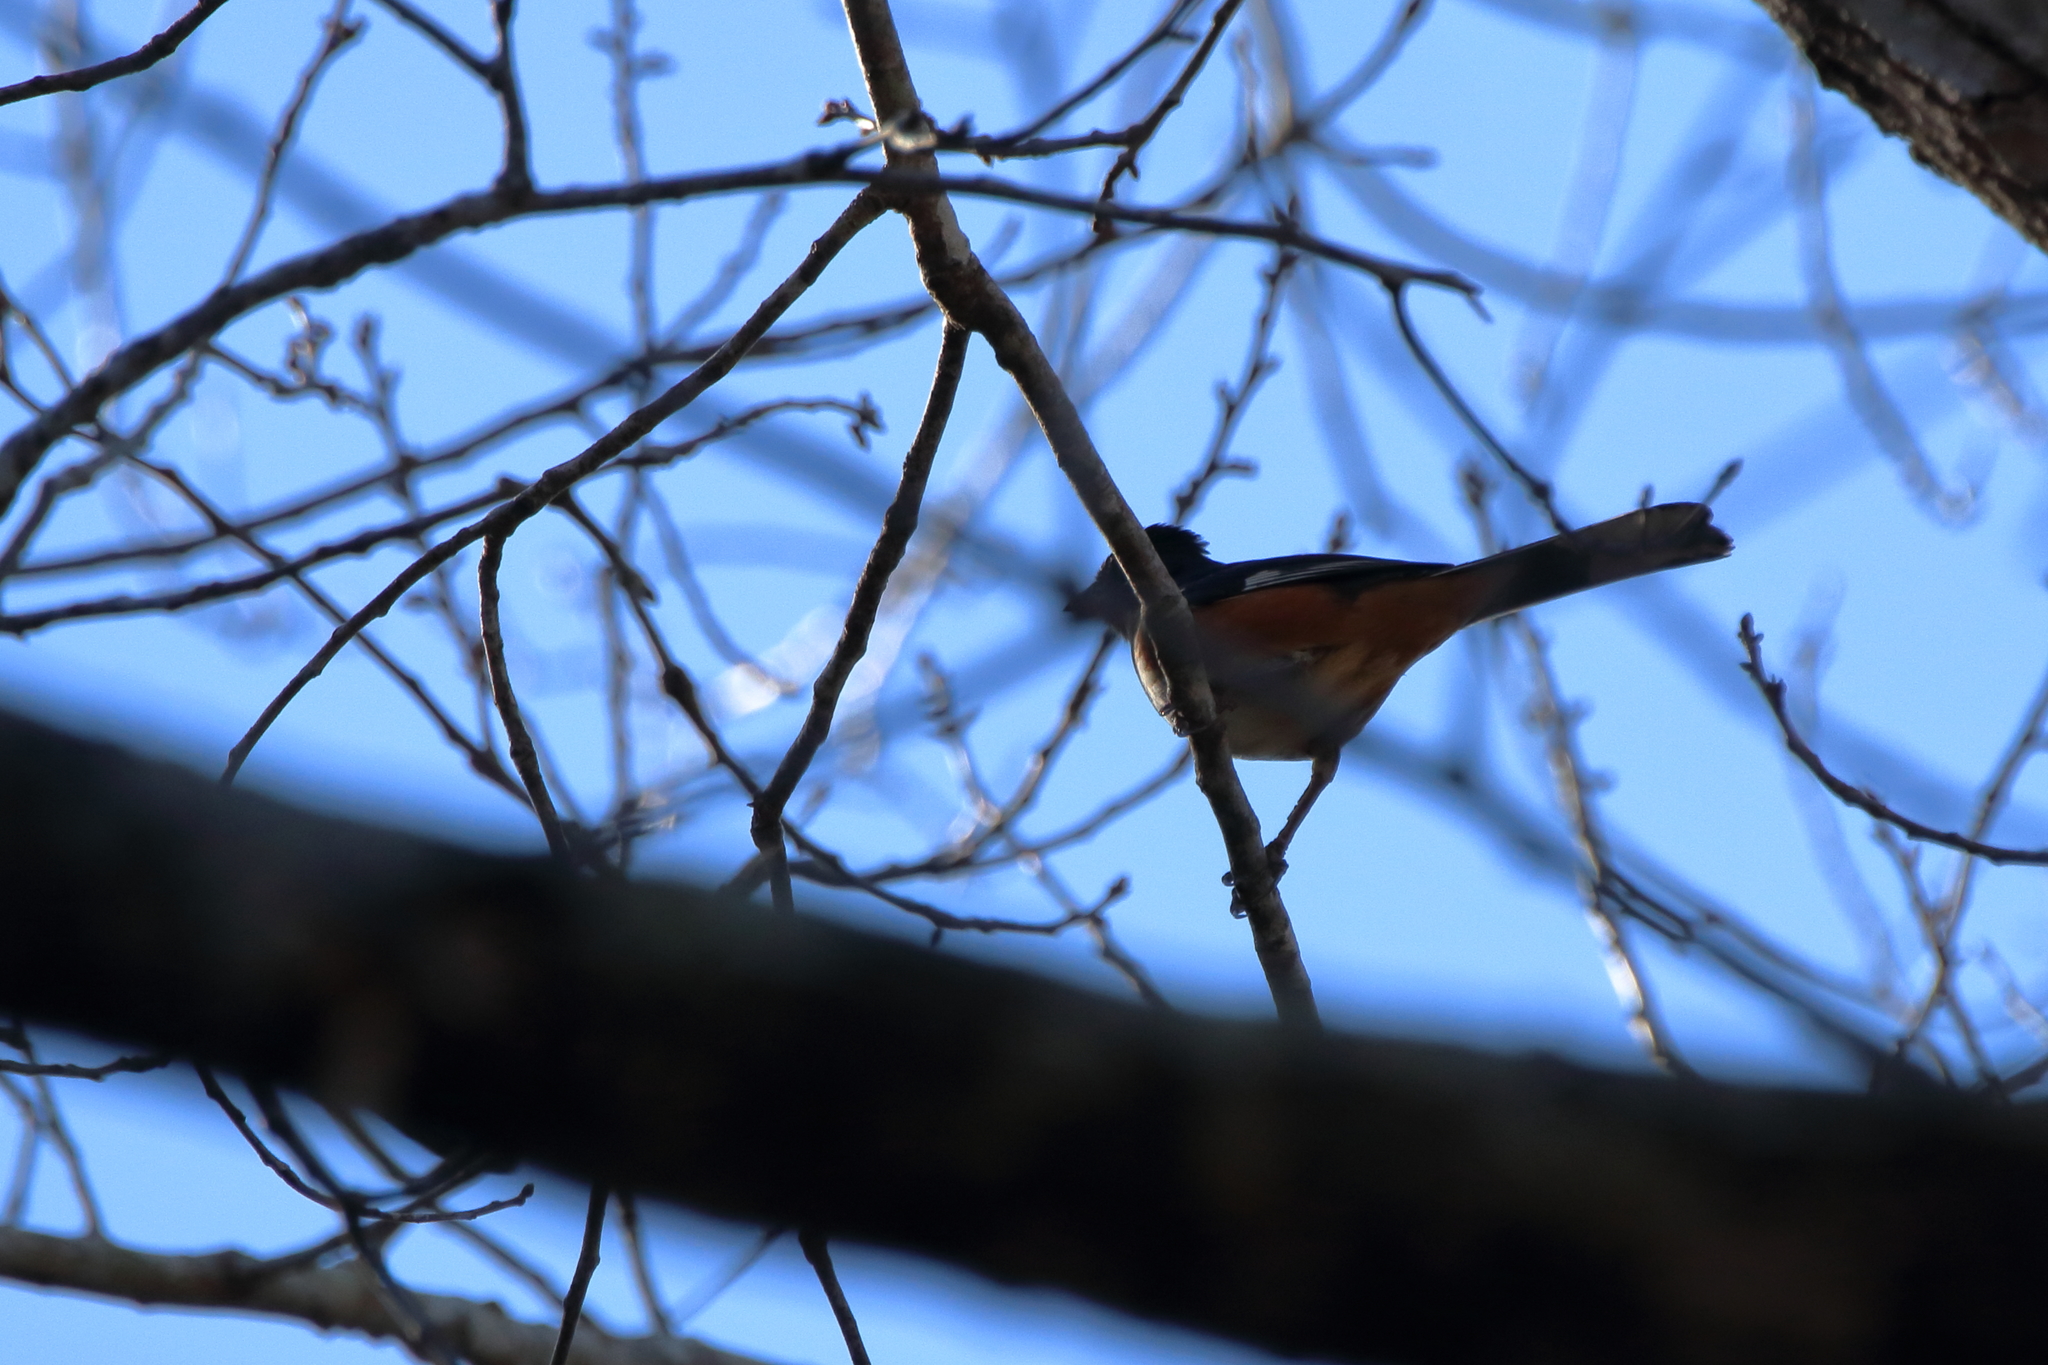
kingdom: Animalia
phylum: Chordata
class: Aves
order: Passeriformes
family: Passerellidae
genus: Pipilo
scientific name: Pipilo erythrophthalmus
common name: Eastern towhee
